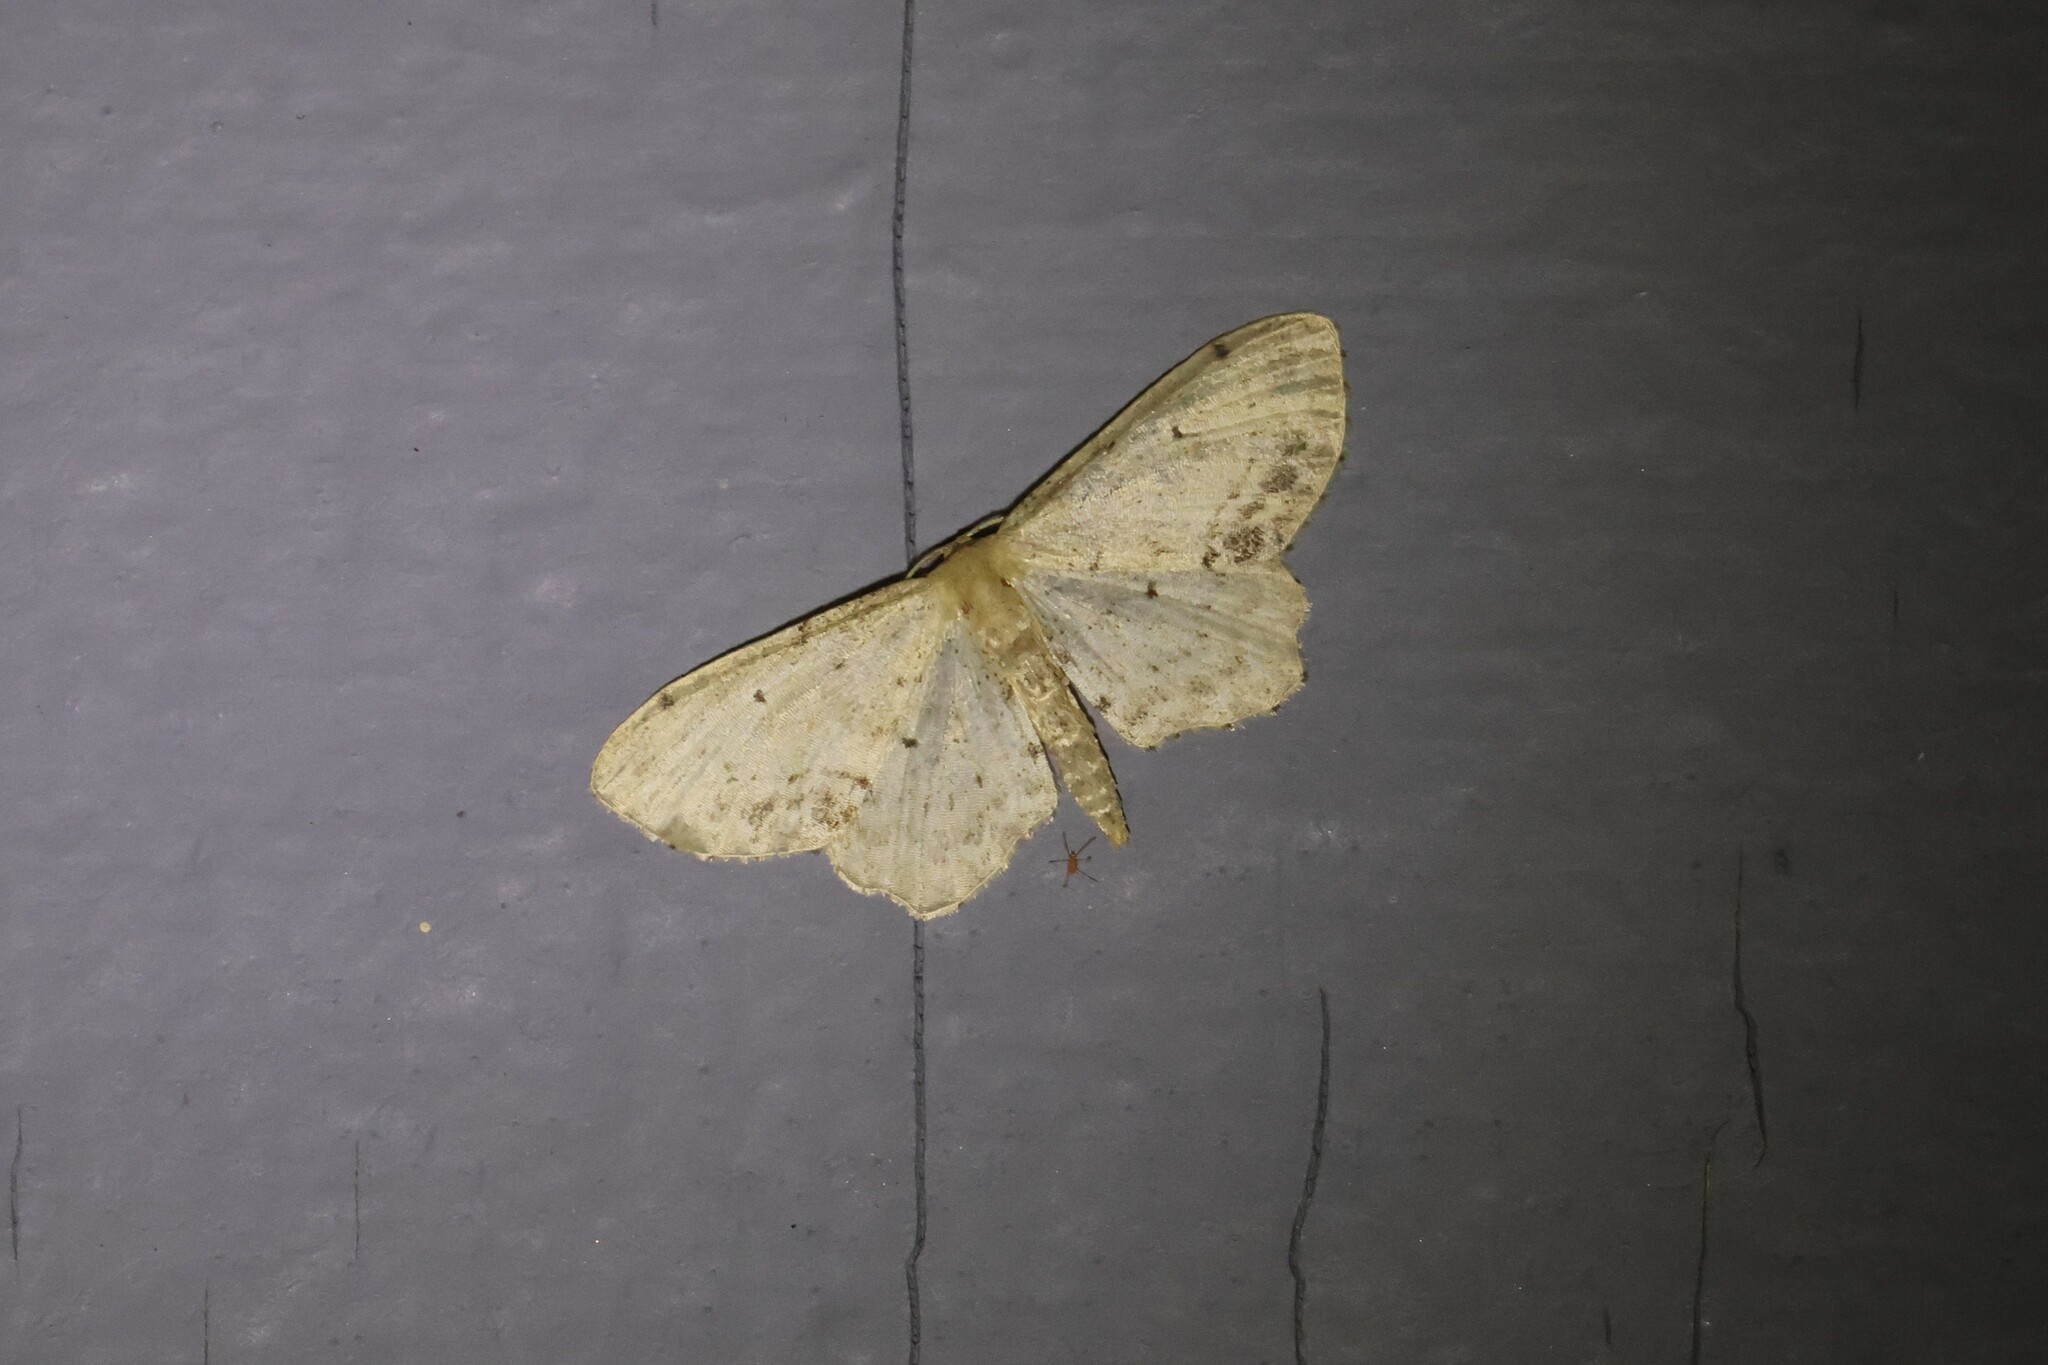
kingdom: Animalia
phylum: Arthropoda
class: Insecta
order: Lepidoptera
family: Geometridae
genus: Idaea
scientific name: Idaea dimidiata
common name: Single-dotted wave
